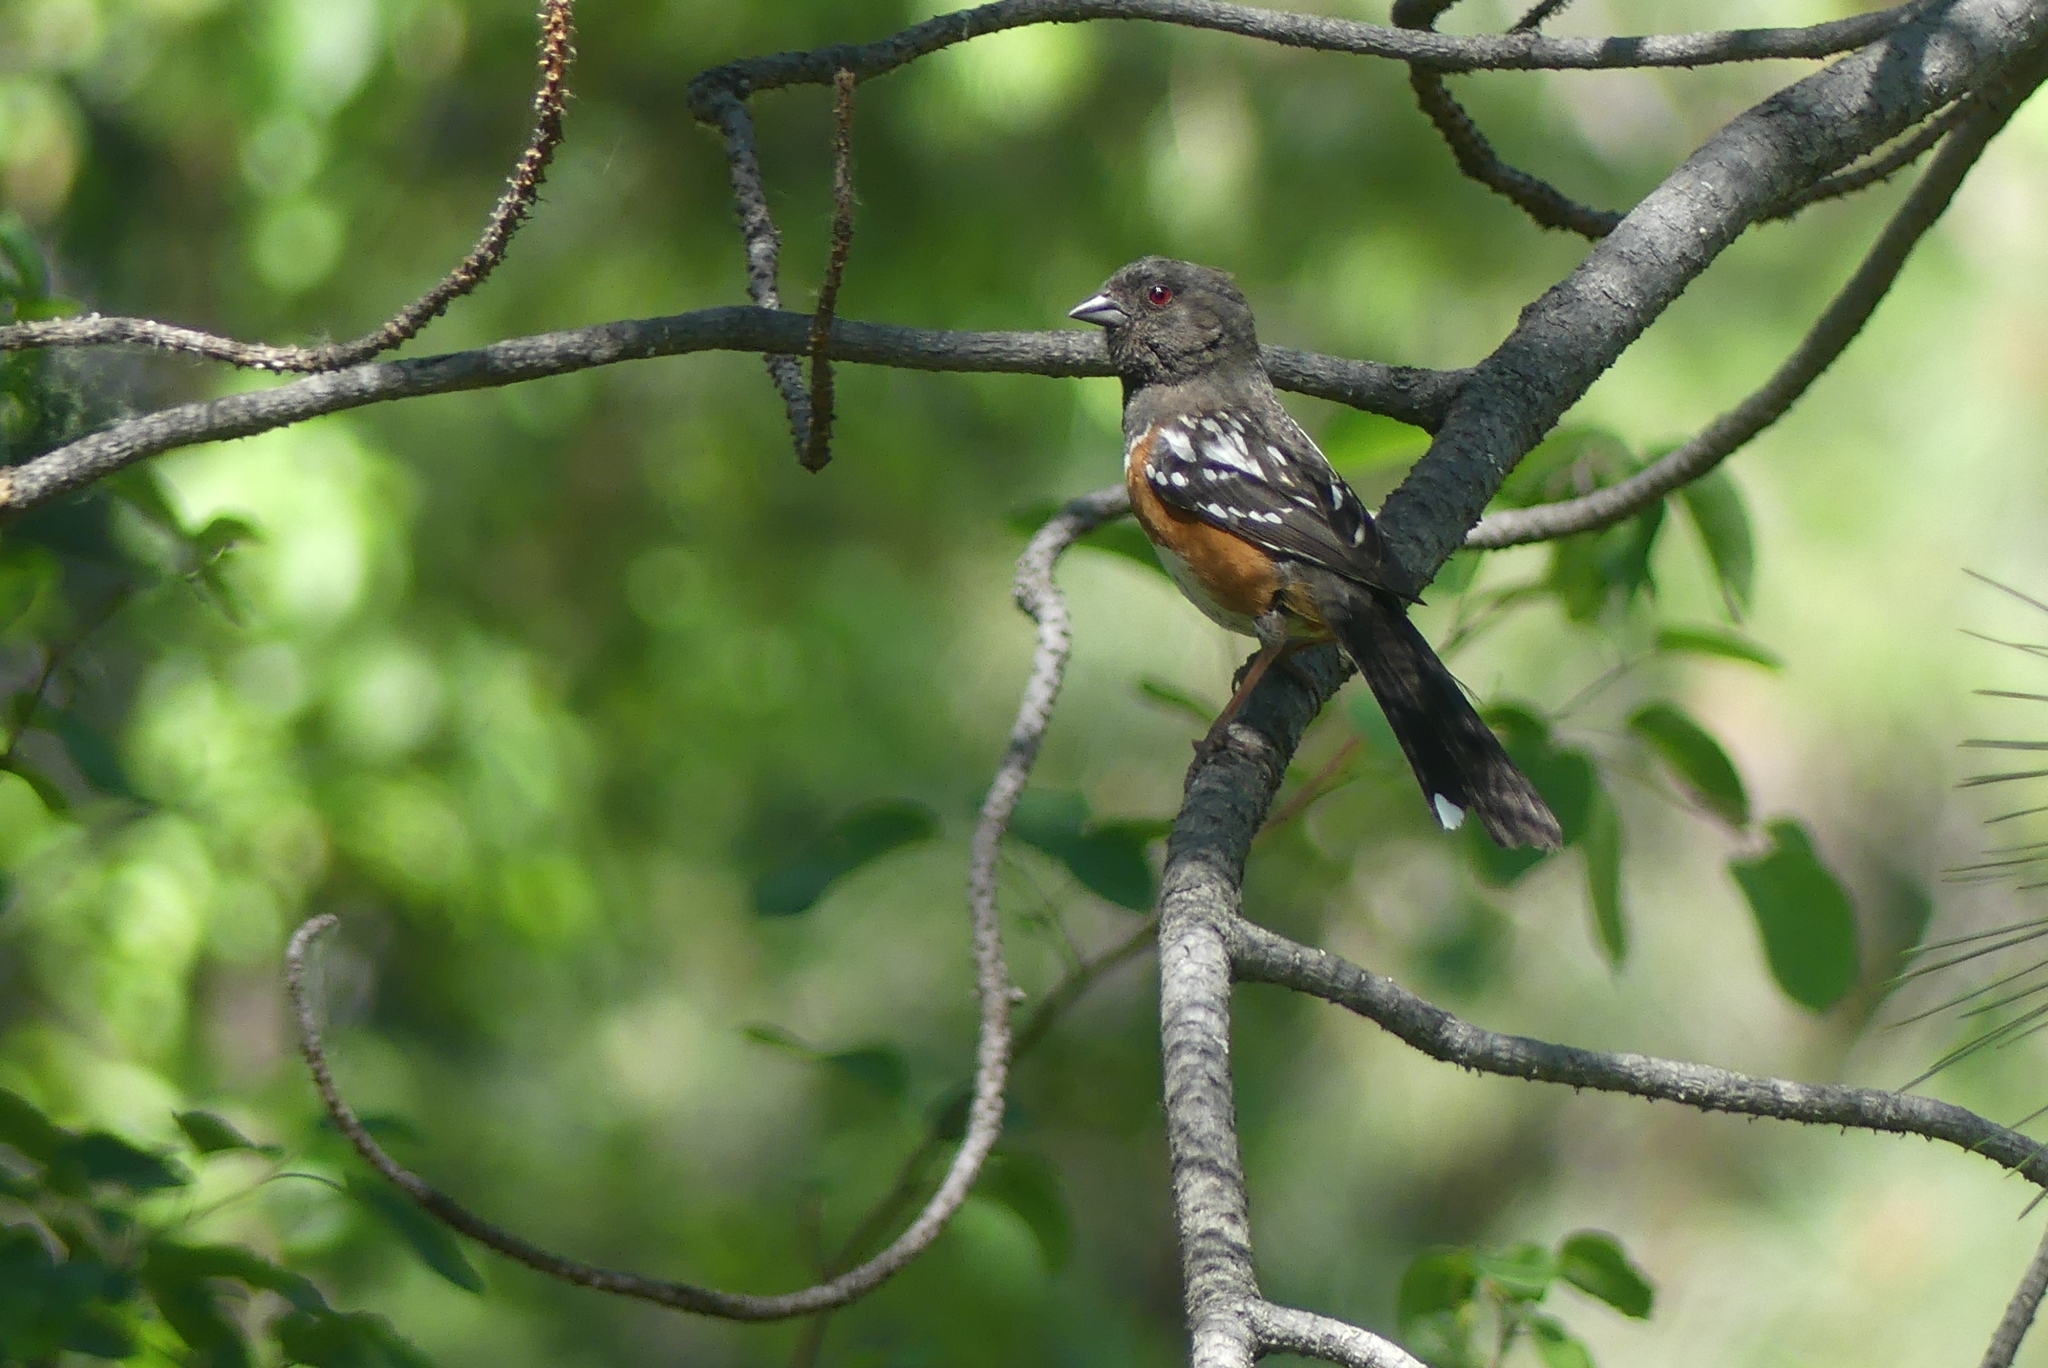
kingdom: Animalia
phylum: Chordata
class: Aves
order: Passeriformes
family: Passerellidae
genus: Pipilo
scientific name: Pipilo maculatus
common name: Spotted towhee
